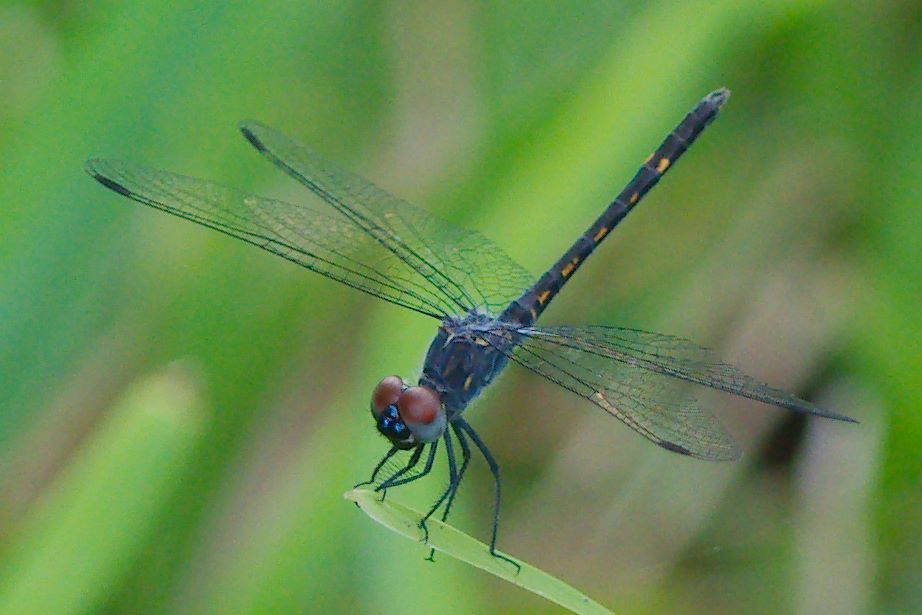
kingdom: Animalia
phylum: Arthropoda
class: Insecta
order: Odonata
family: Libellulidae
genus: Erythrodiplax
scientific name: Erythrodiplax berenice
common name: Seaside dragonlet
